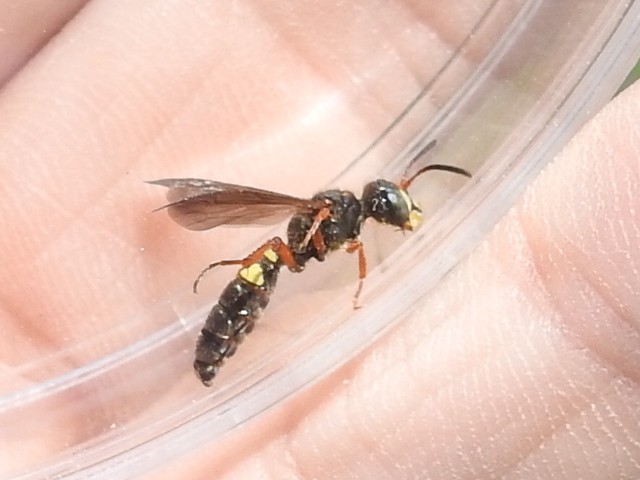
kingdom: Animalia
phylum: Arthropoda
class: Insecta
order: Hymenoptera
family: Crabronidae
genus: Cerceris
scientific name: Cerceris gnarina
